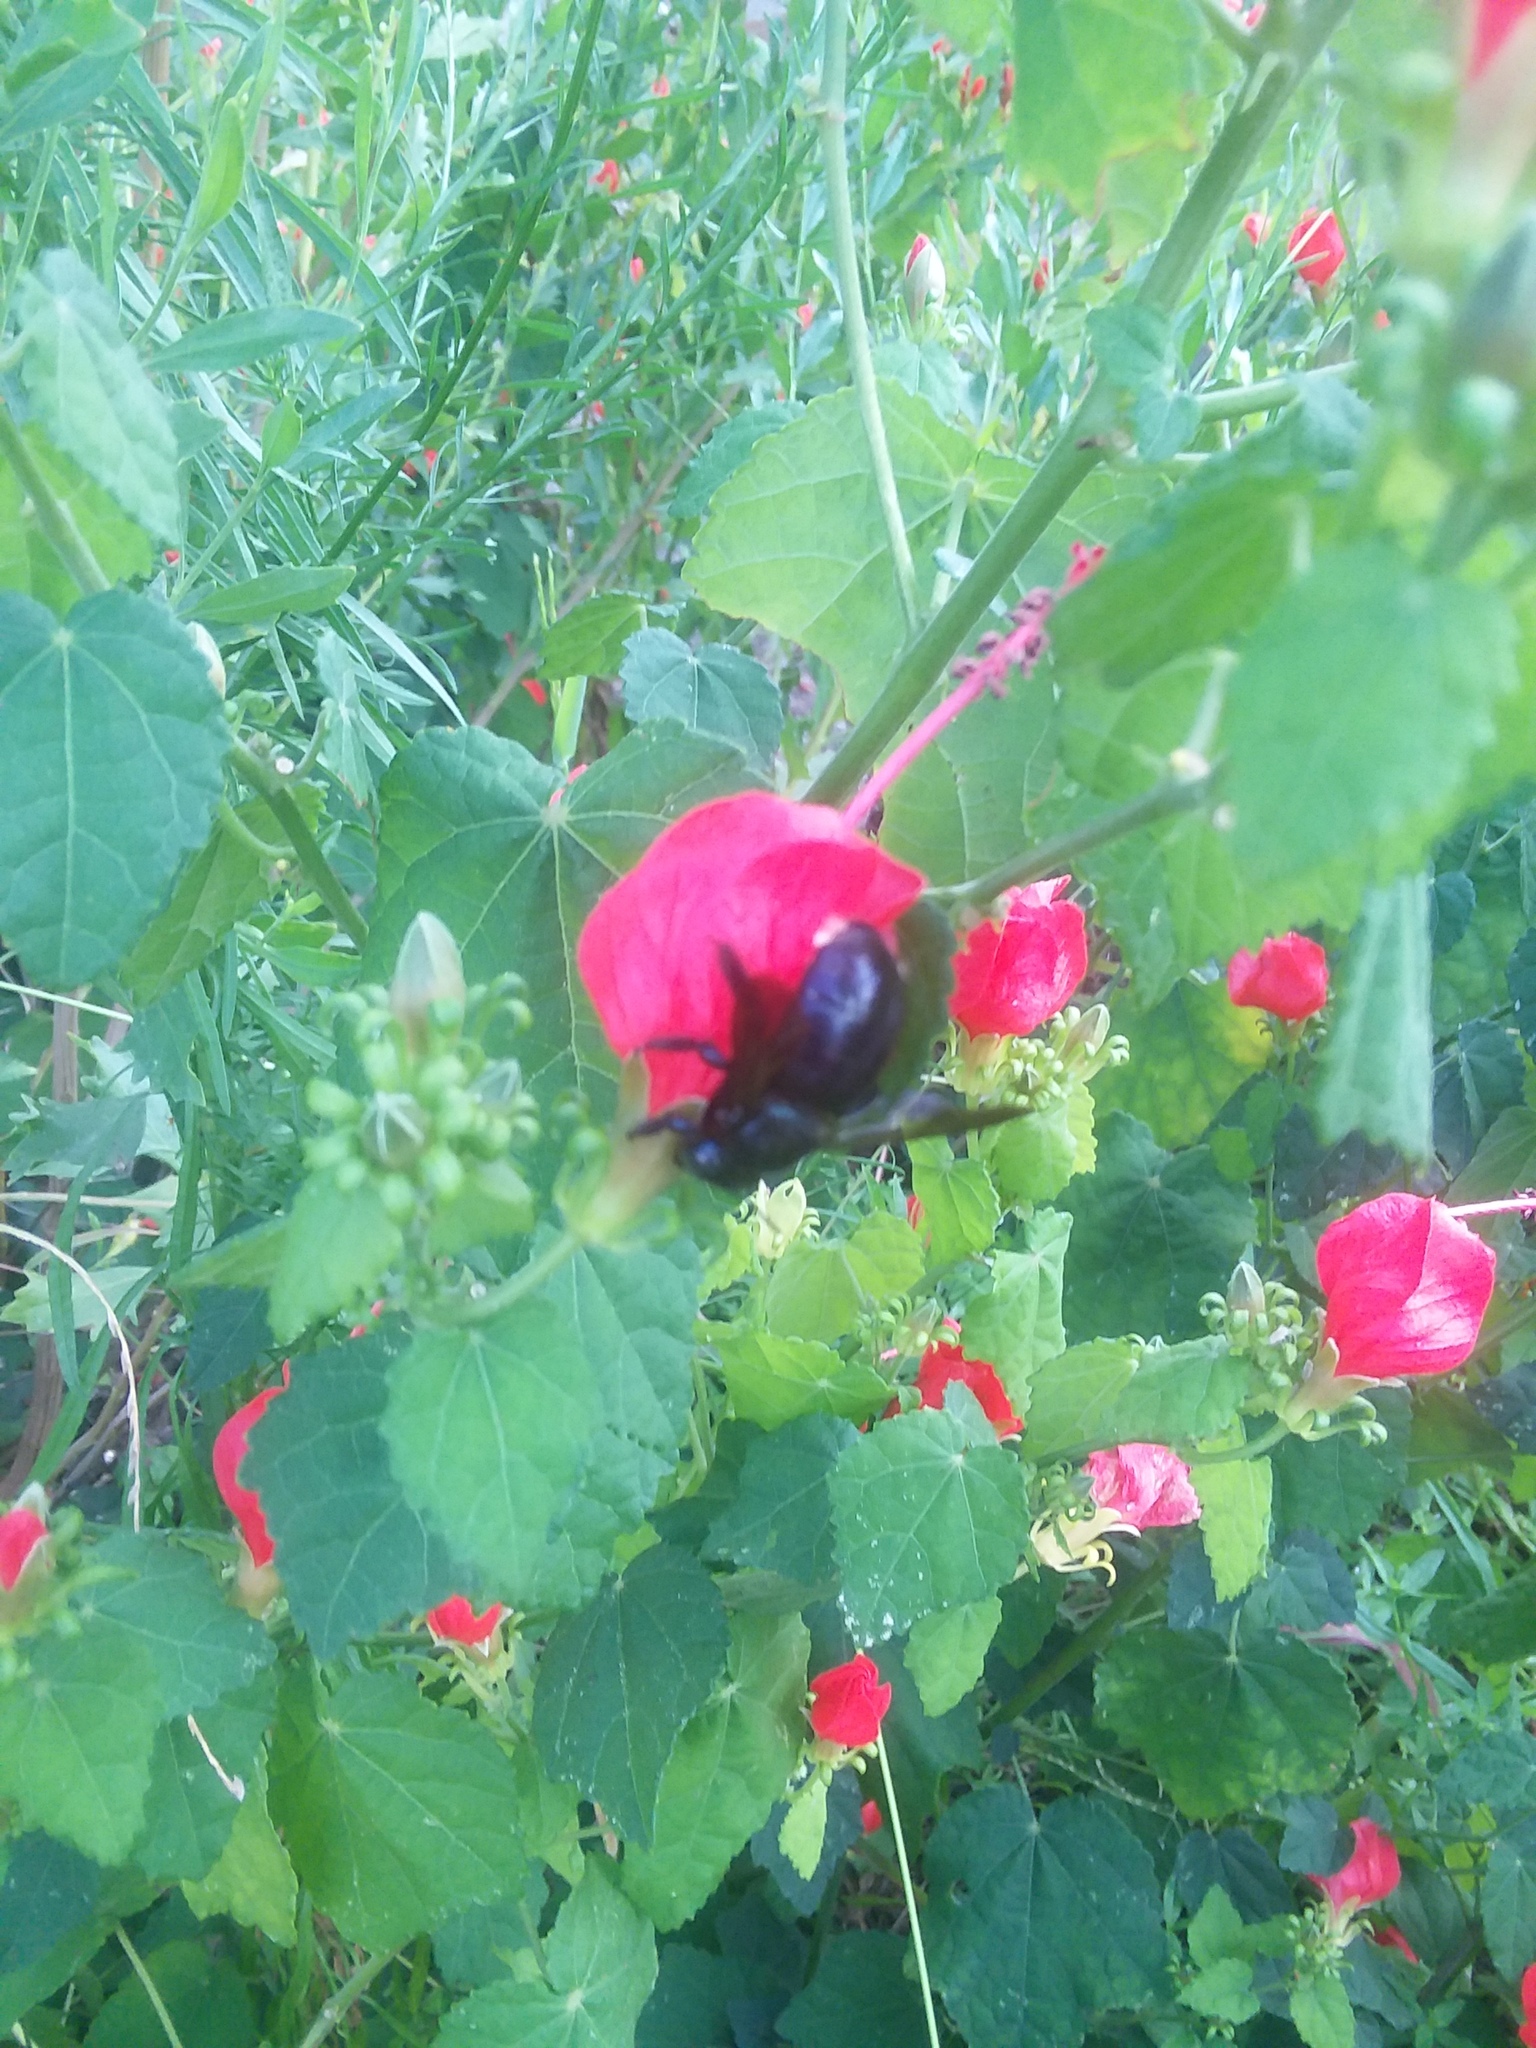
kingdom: Animalia
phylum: Arthropoda
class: Insecta
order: Hymenoptera
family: Apidae
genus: Xylocopa
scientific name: Xylocopa micans
